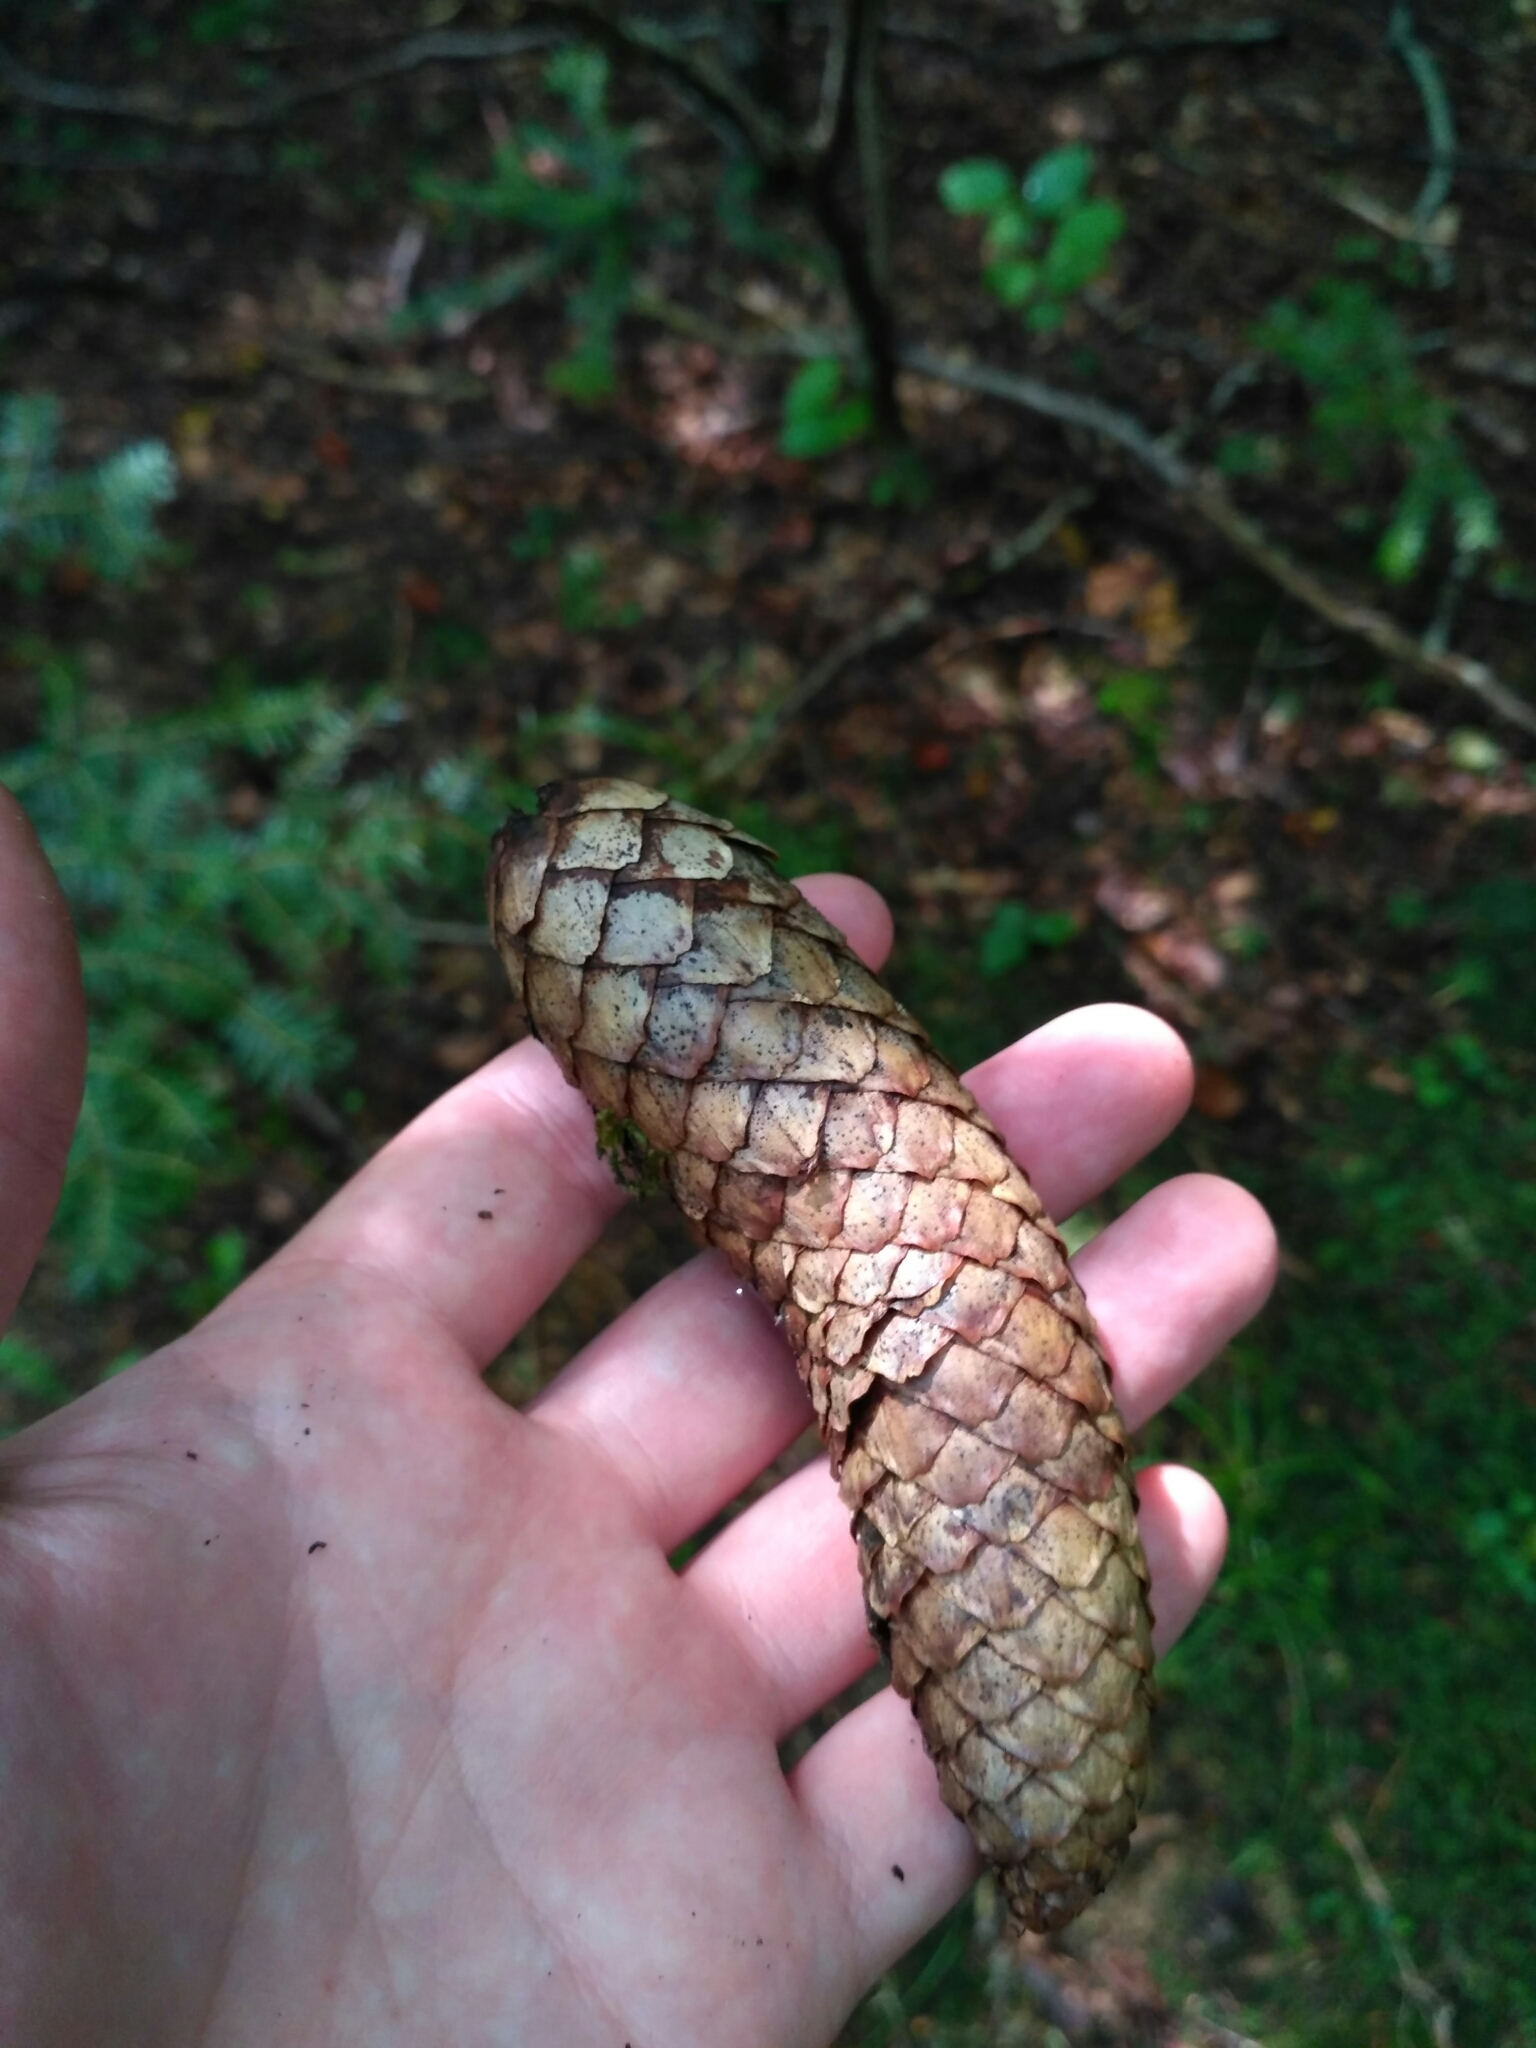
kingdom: Plantae
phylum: Tracheophyta
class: Pinopsida
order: Pinales
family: Pinaceae
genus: Picea
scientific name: Picea abies
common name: Norway spruce
